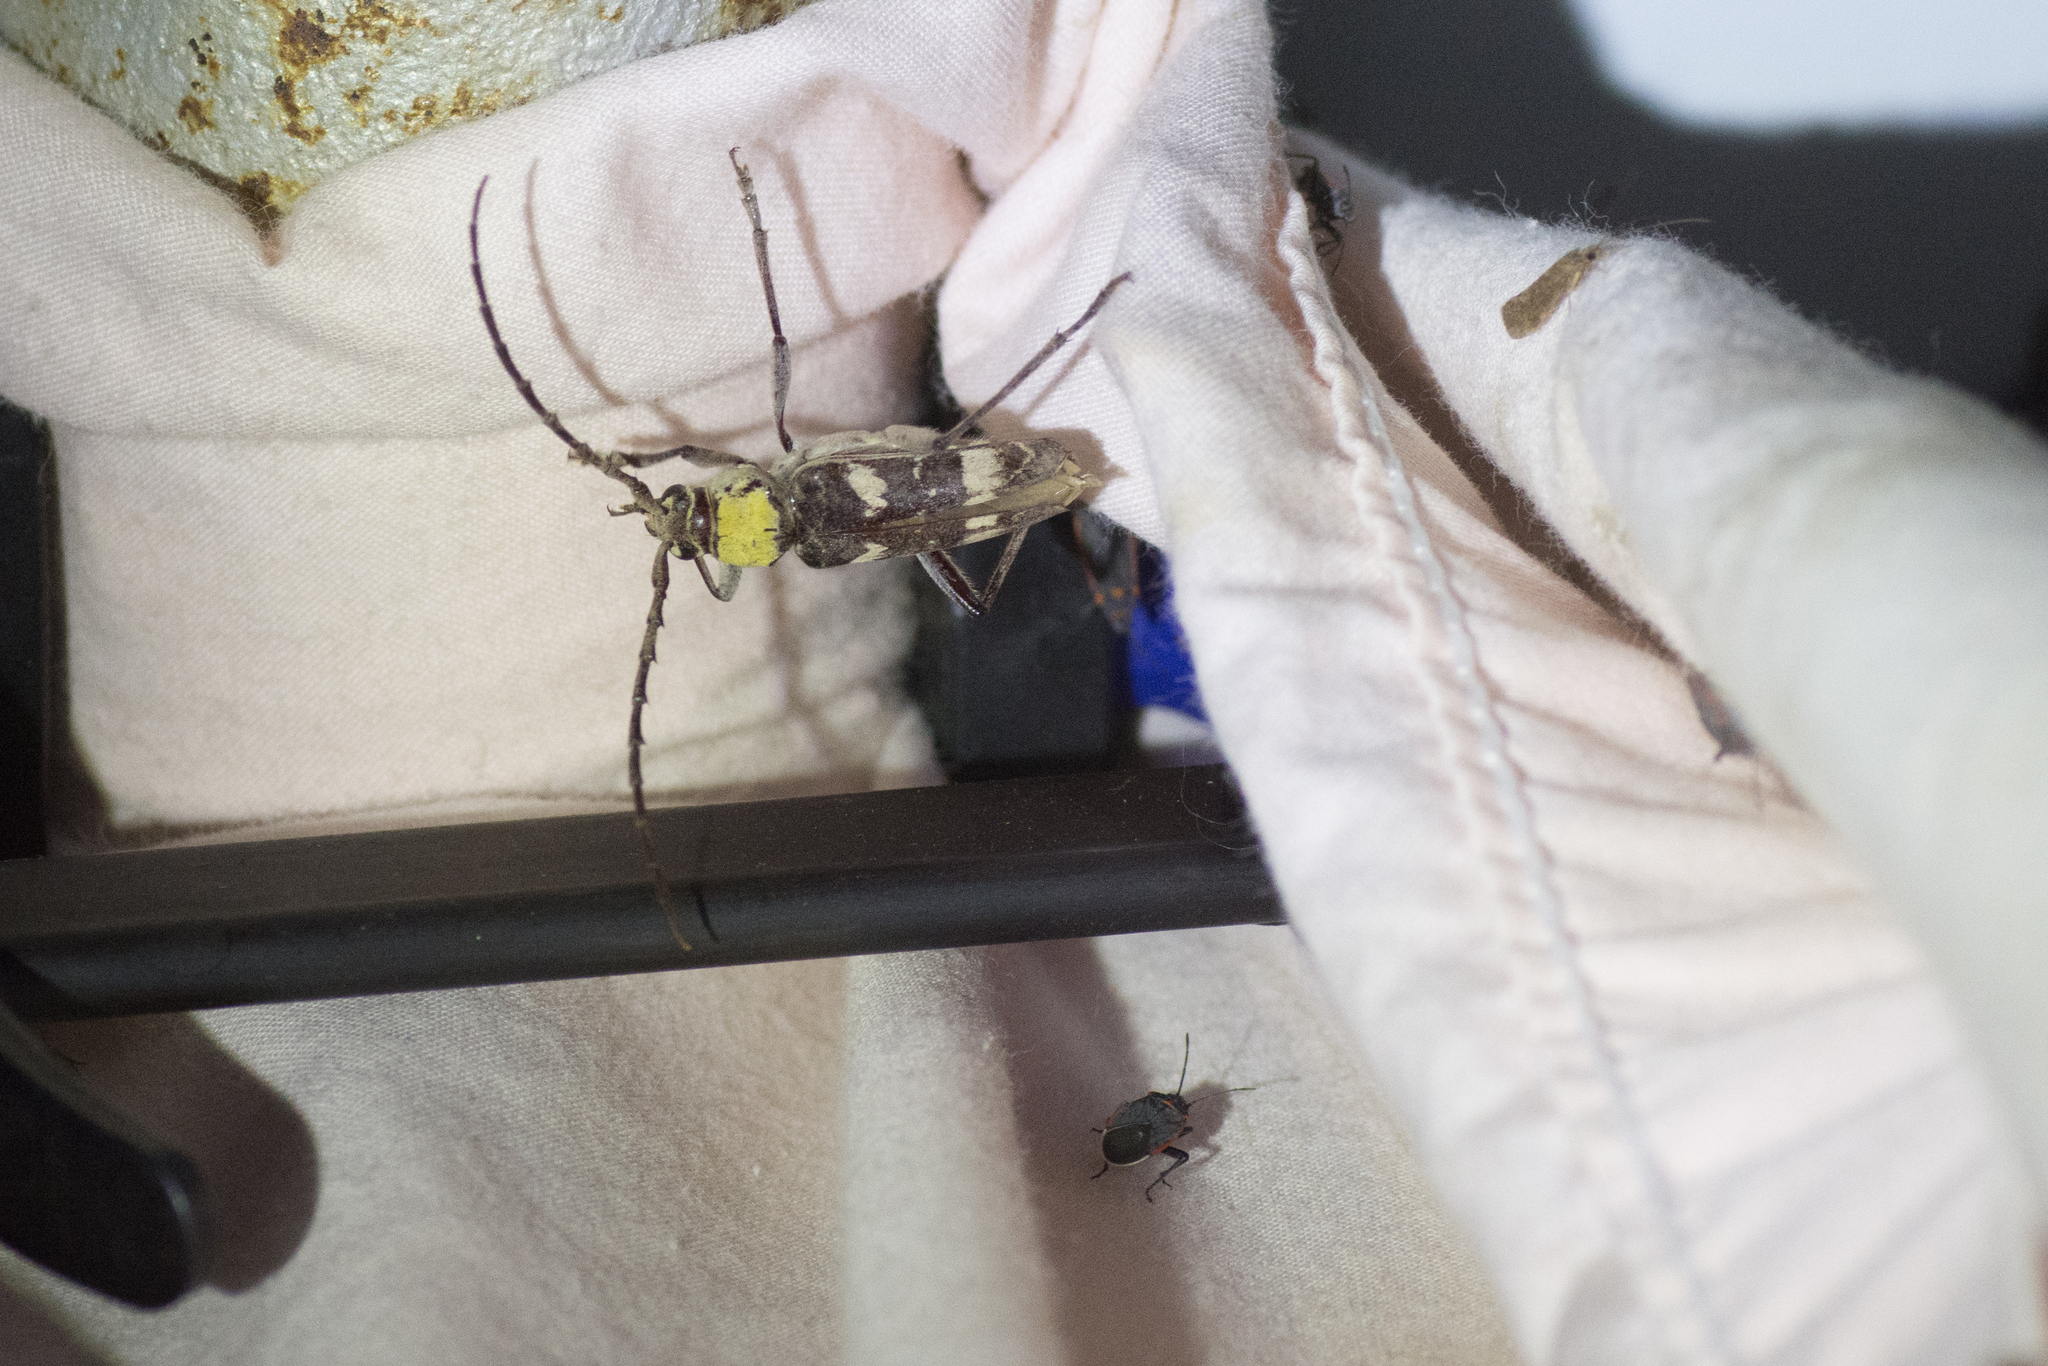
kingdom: Animalia
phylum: Arthropoda
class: Insecta
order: Coleoptera
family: Cerambycidae
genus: Megacyllene
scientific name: Megacyllene antennata
